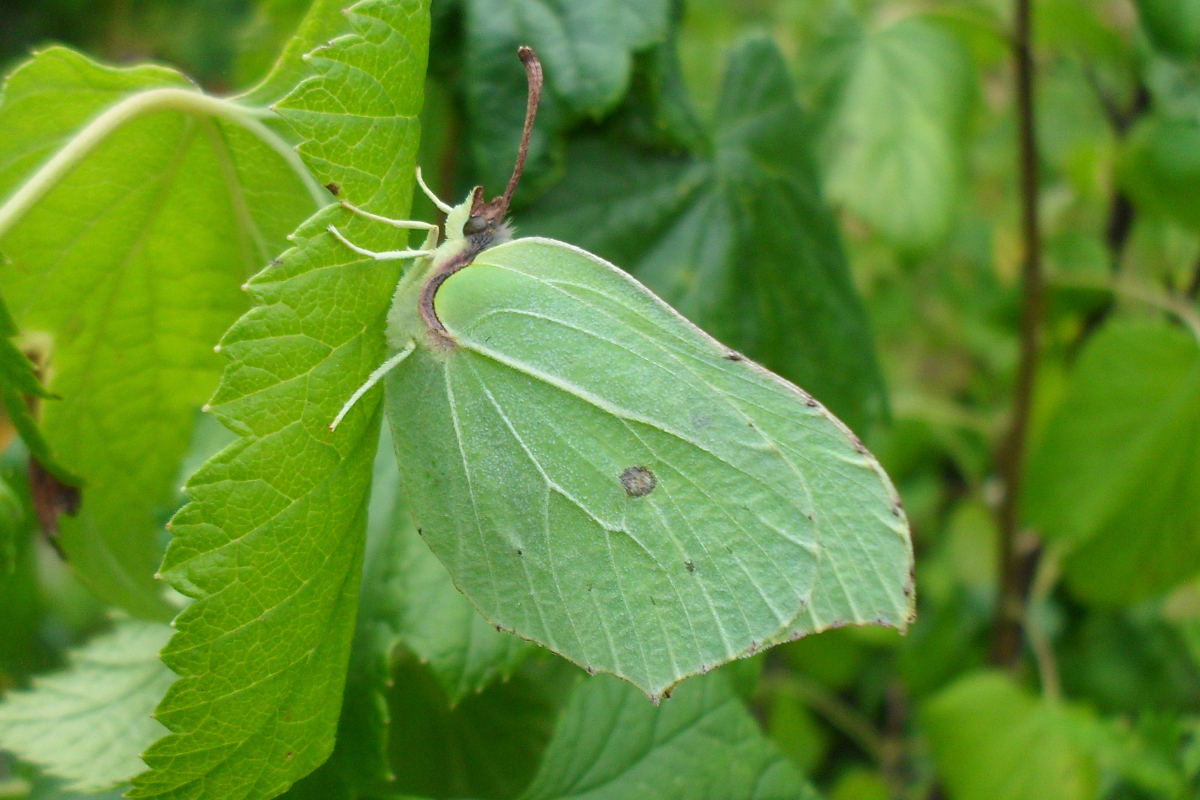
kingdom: Animalia
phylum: Arthropoda
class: Insecta
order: Lepidoptera
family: Pieridae
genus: Gonepteryx
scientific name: Gonepteryx rhamni
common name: Brimstone
